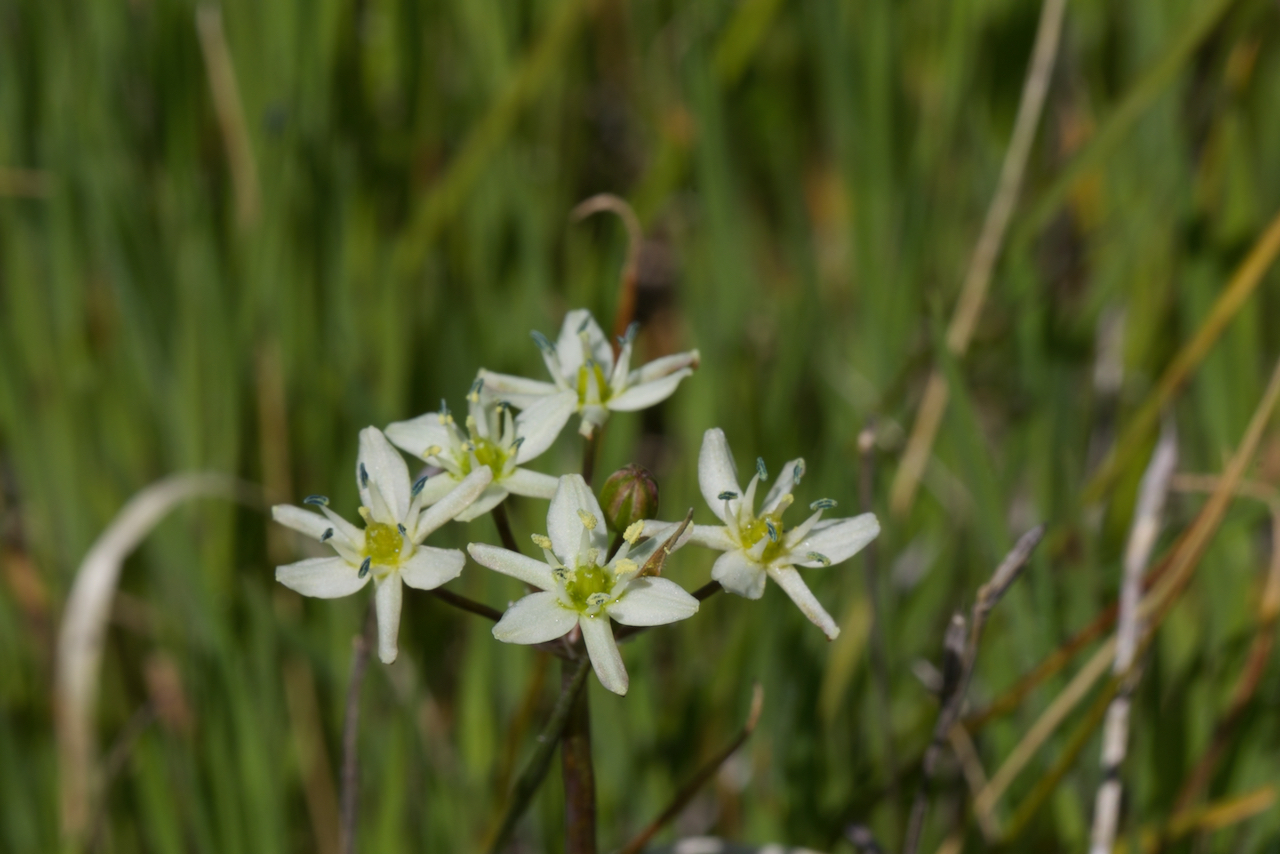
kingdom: Plantae
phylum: Tracheophyta
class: Liliopsida
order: Asparagales
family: Asparagaceae
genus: Muilla
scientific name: Muilla maritima
